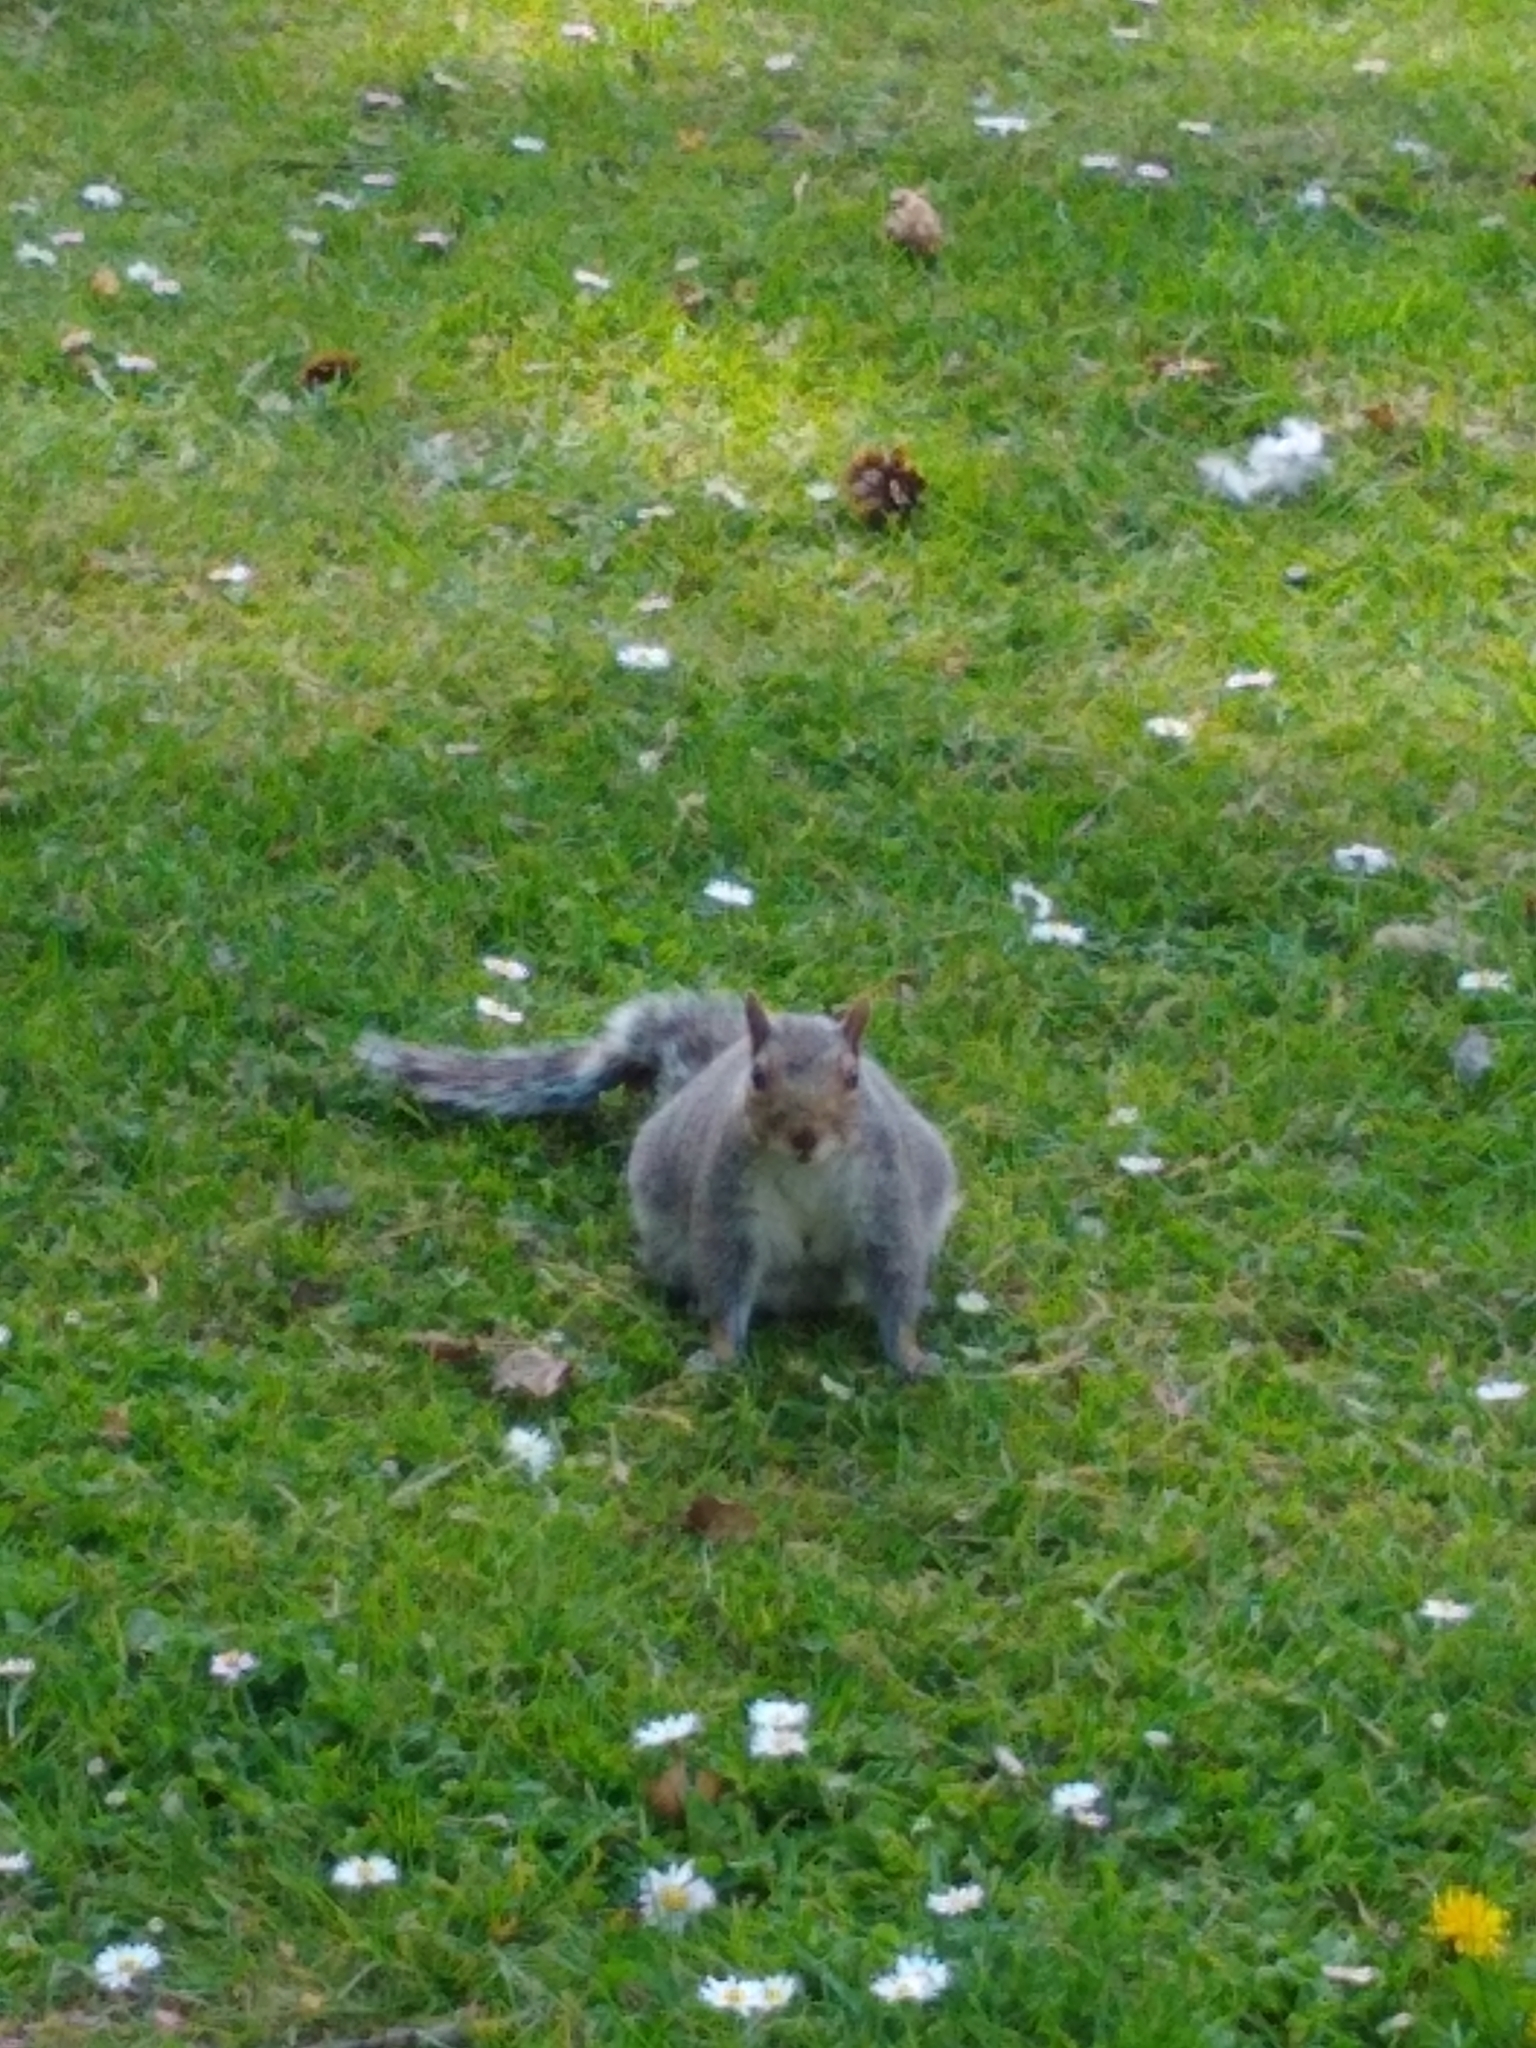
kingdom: Animalia
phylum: Chordata
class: Mammalia
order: Rodentia
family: Sciuridae
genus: Sciurus
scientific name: Sciurus carolinensis
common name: Eastern gray squirrel
